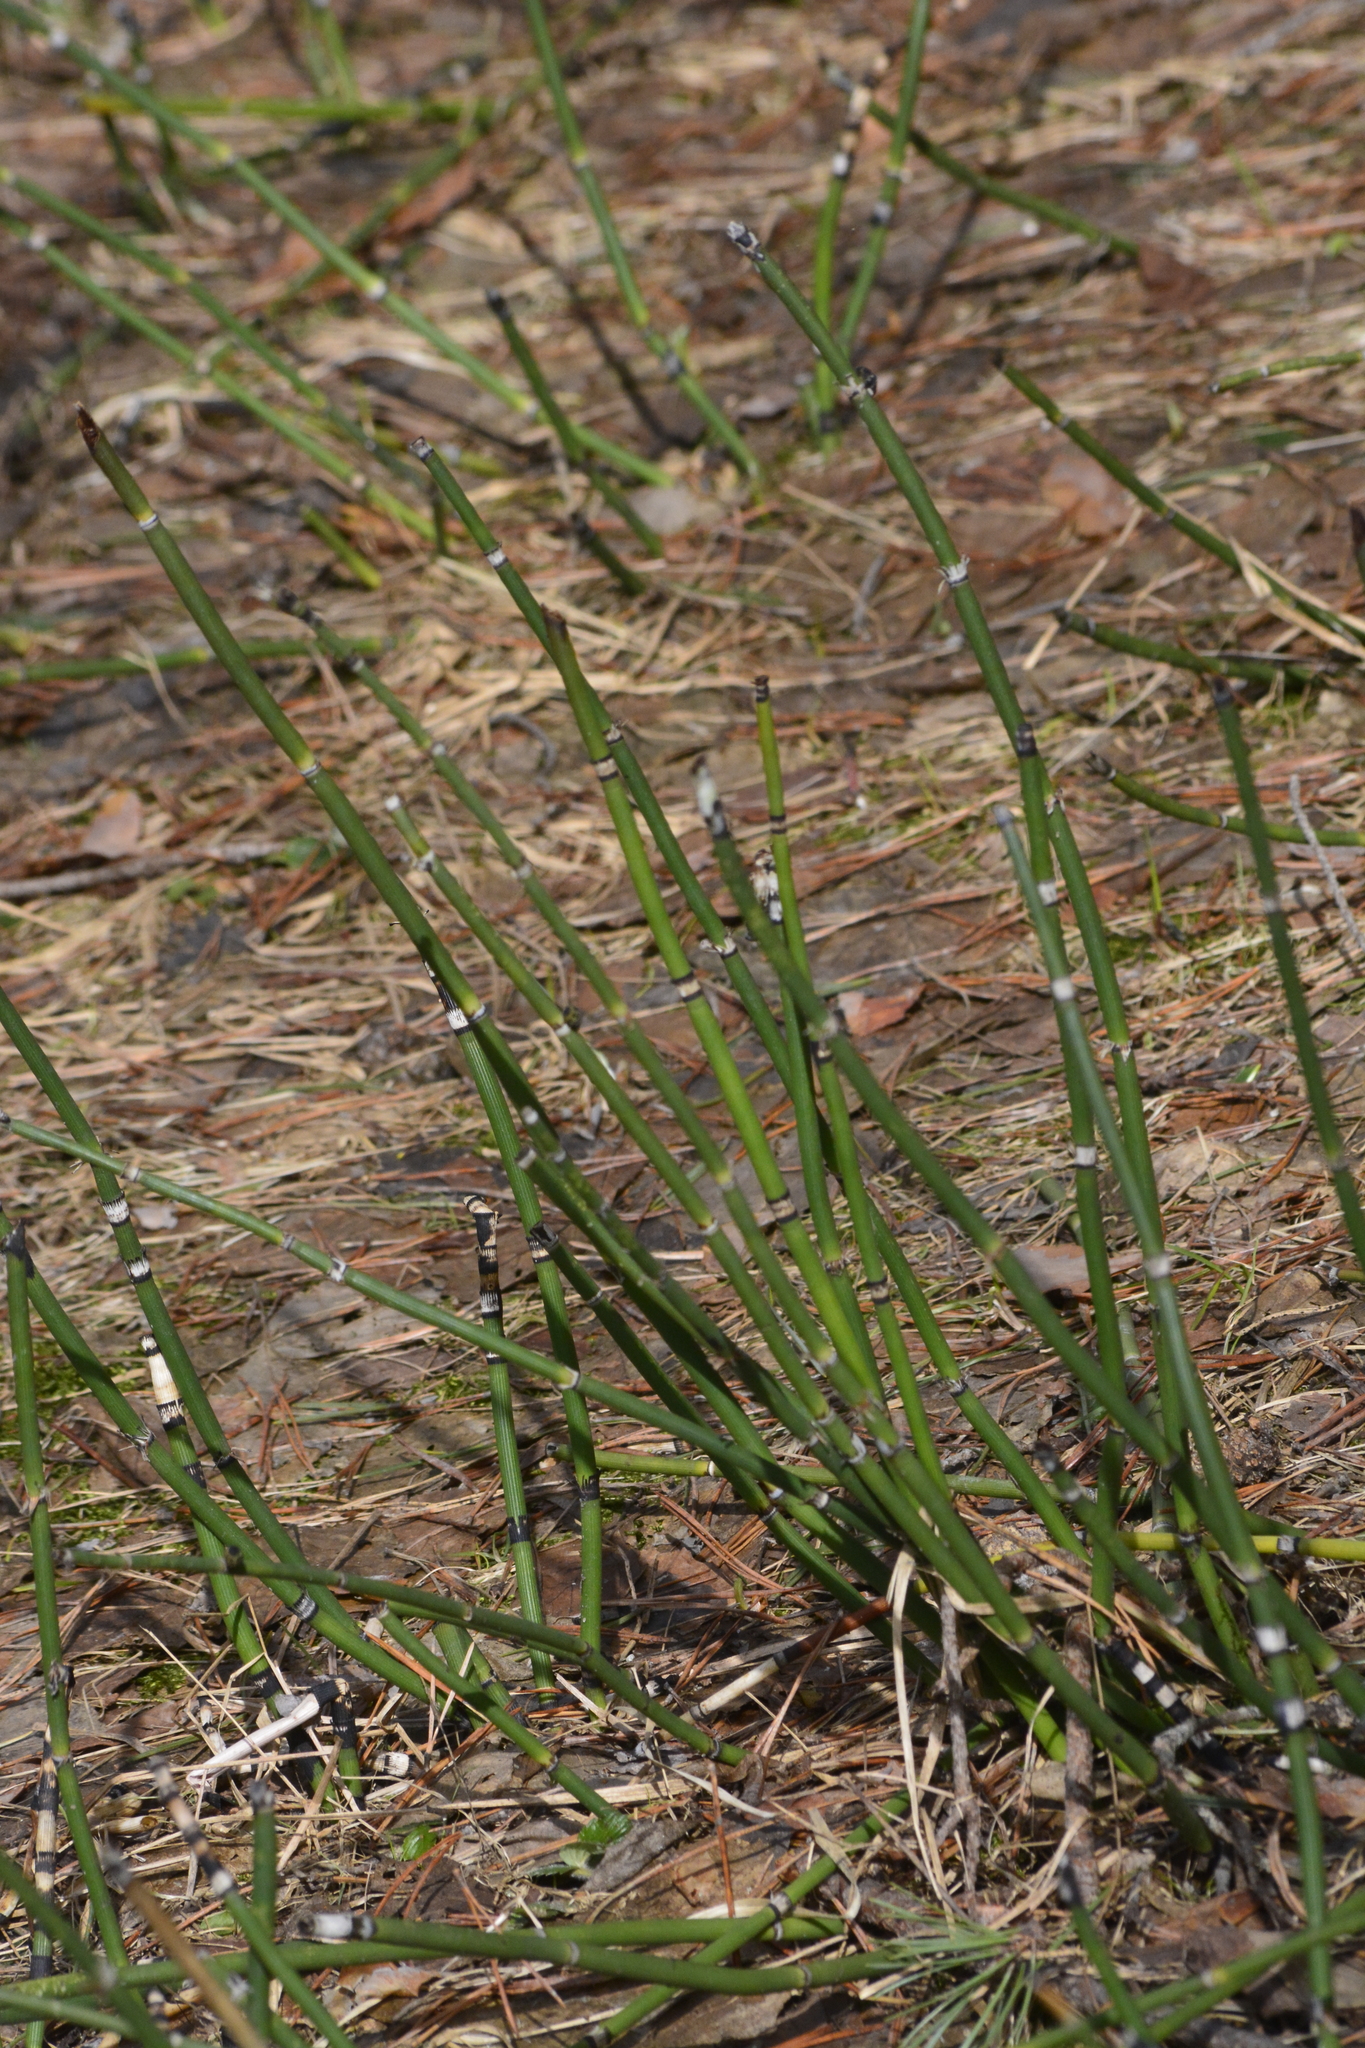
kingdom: Plantae
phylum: Tracheophyta
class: Polypodiopsida
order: Equisetales
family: Equisetaceae
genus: Equisetum
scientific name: Equisetum hyemale
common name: Rough horsetail
